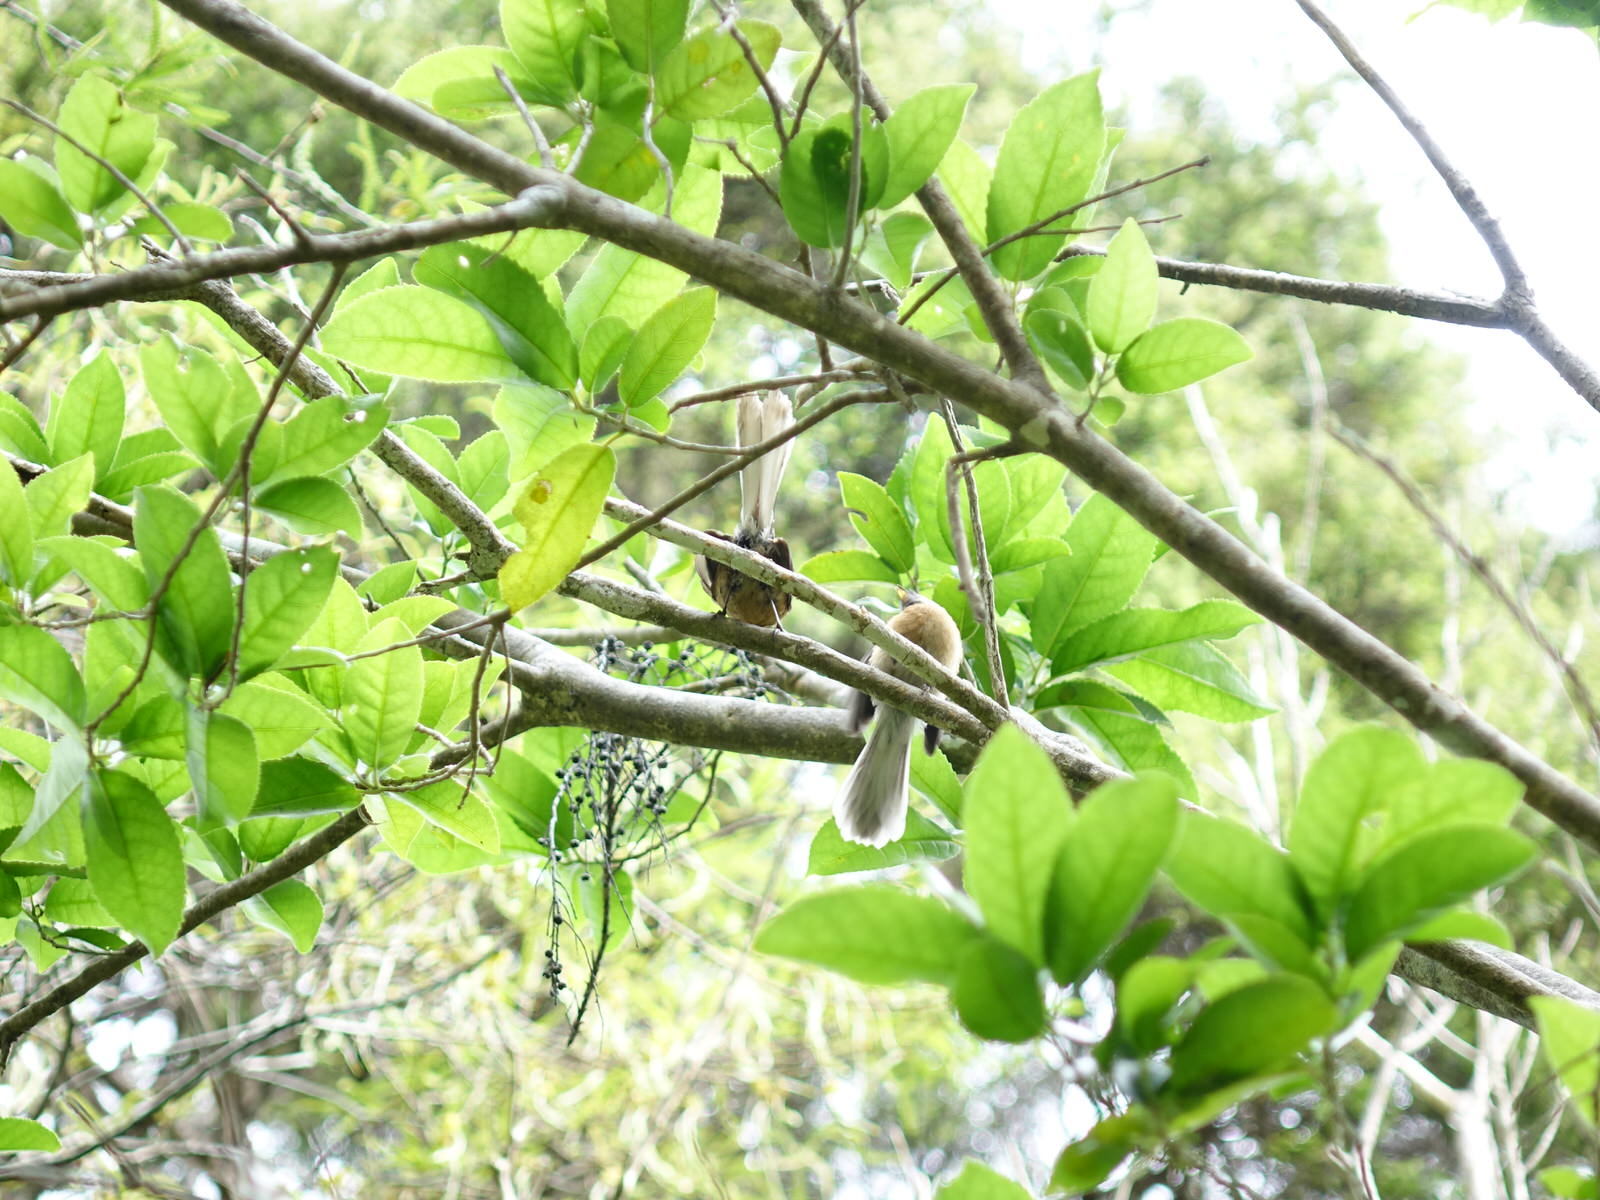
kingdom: Animalia
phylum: Chordata
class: Aves
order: Passeriformes
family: Rhipiduridae
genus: Rhipidura
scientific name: Rhipidura fuliginosa
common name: New zealand fantail
